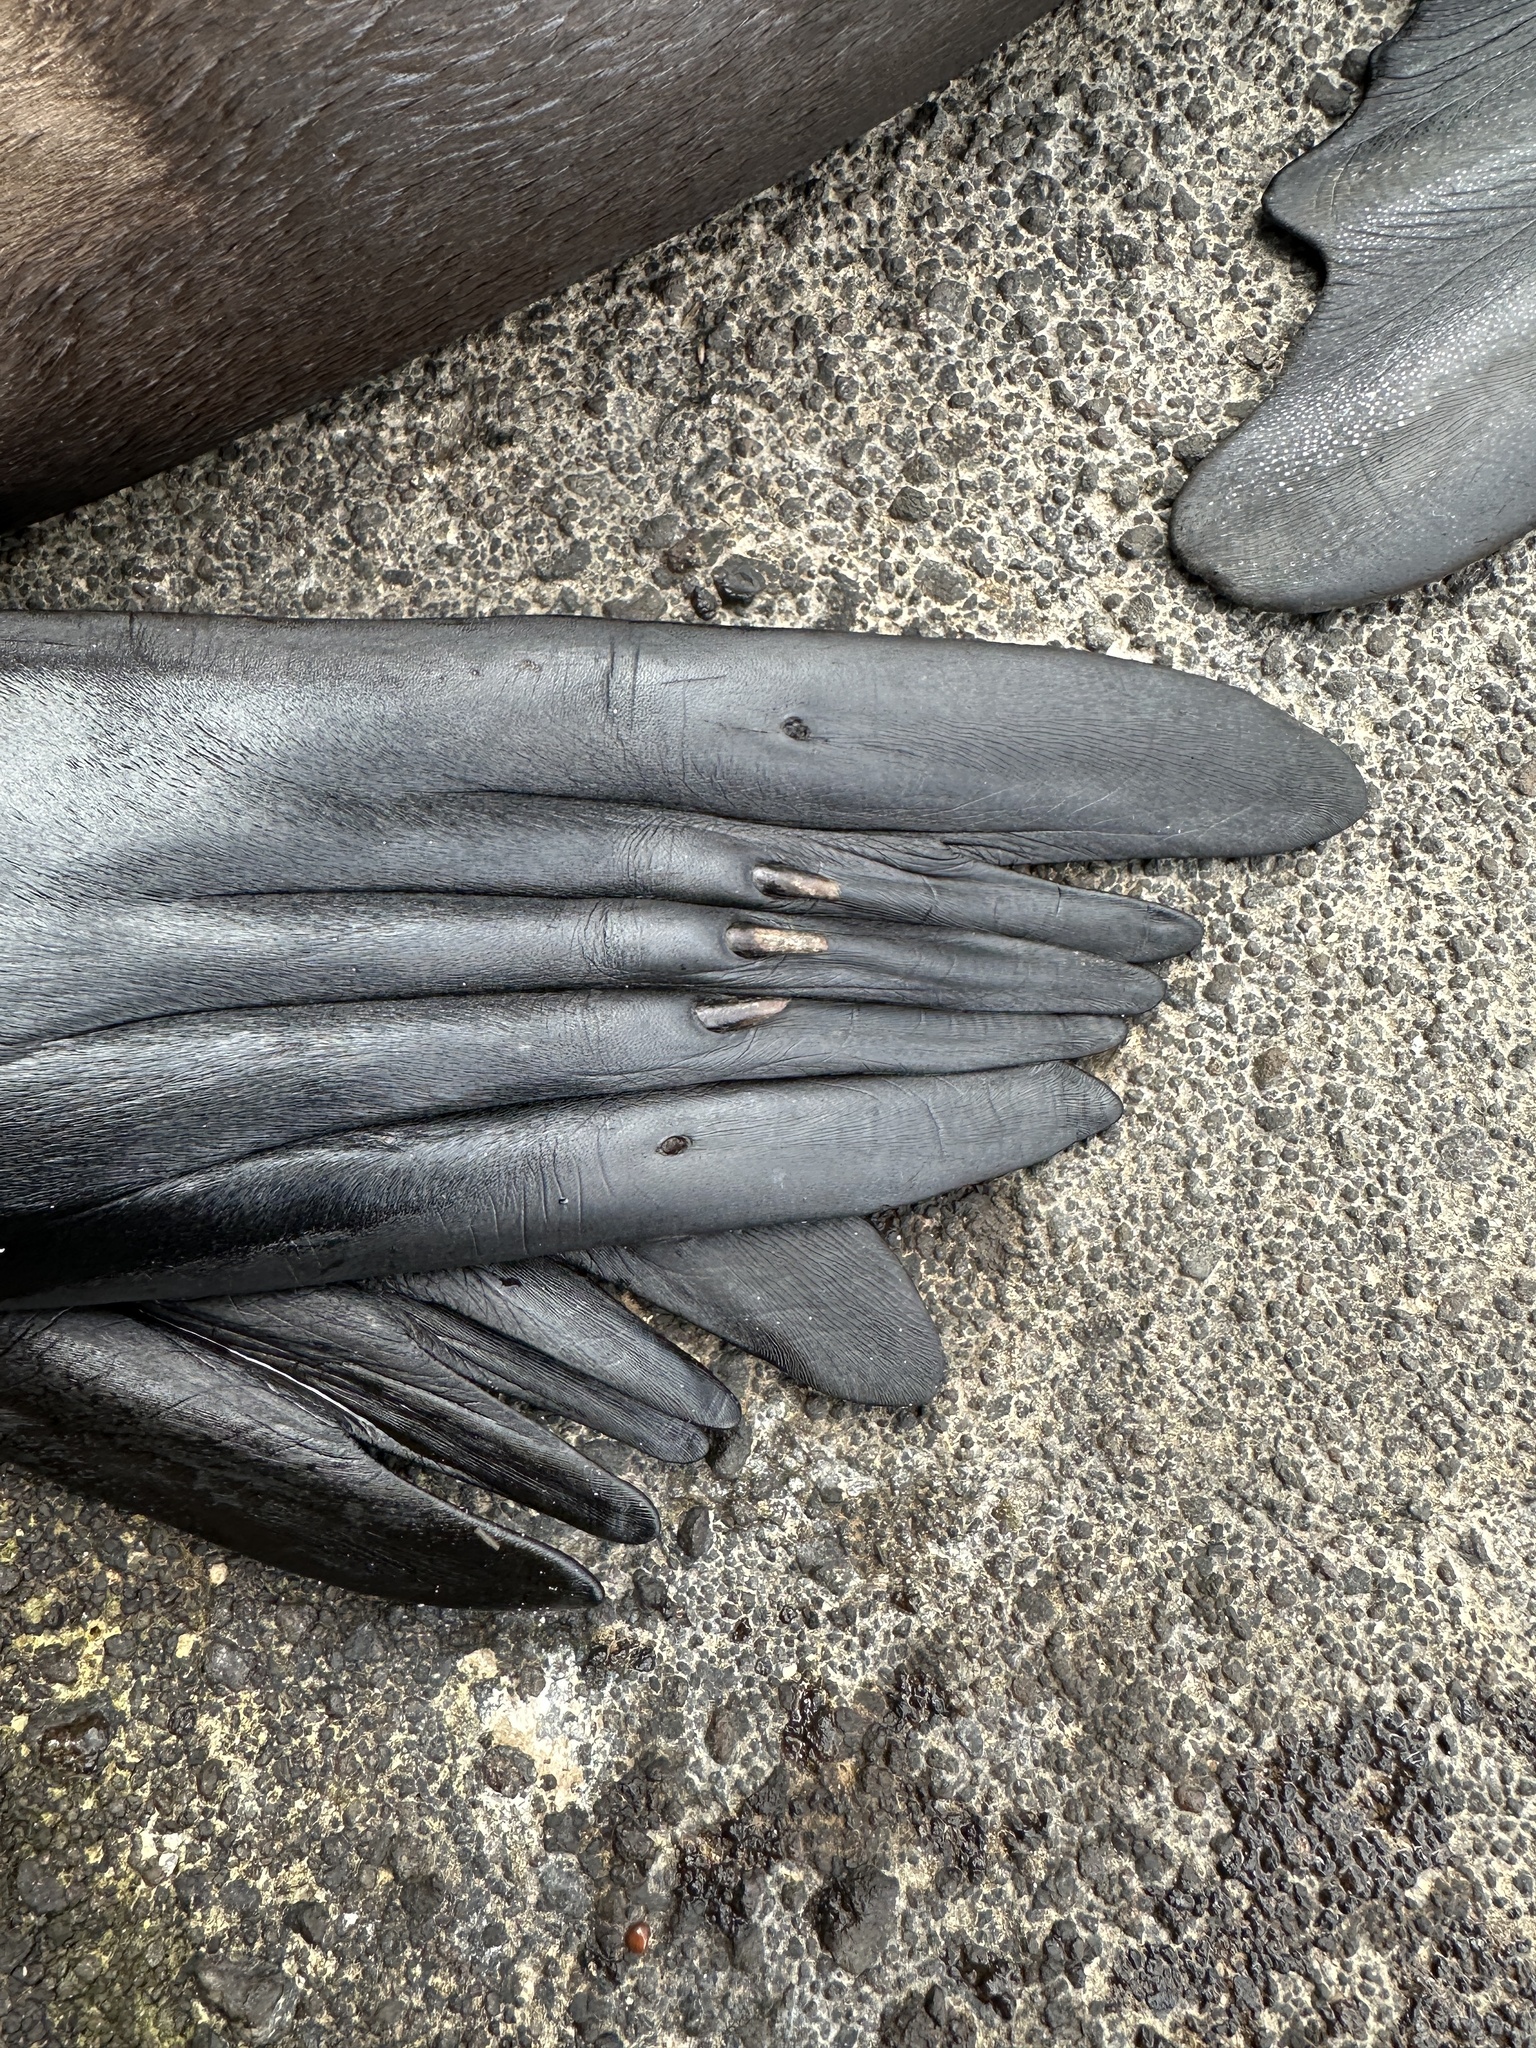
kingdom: Animalia
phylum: Chordata
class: Mammalia
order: Carnivora
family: Otariidae
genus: Zalophus
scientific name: Zalophus wollebaeki
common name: Galapagos sea lion
